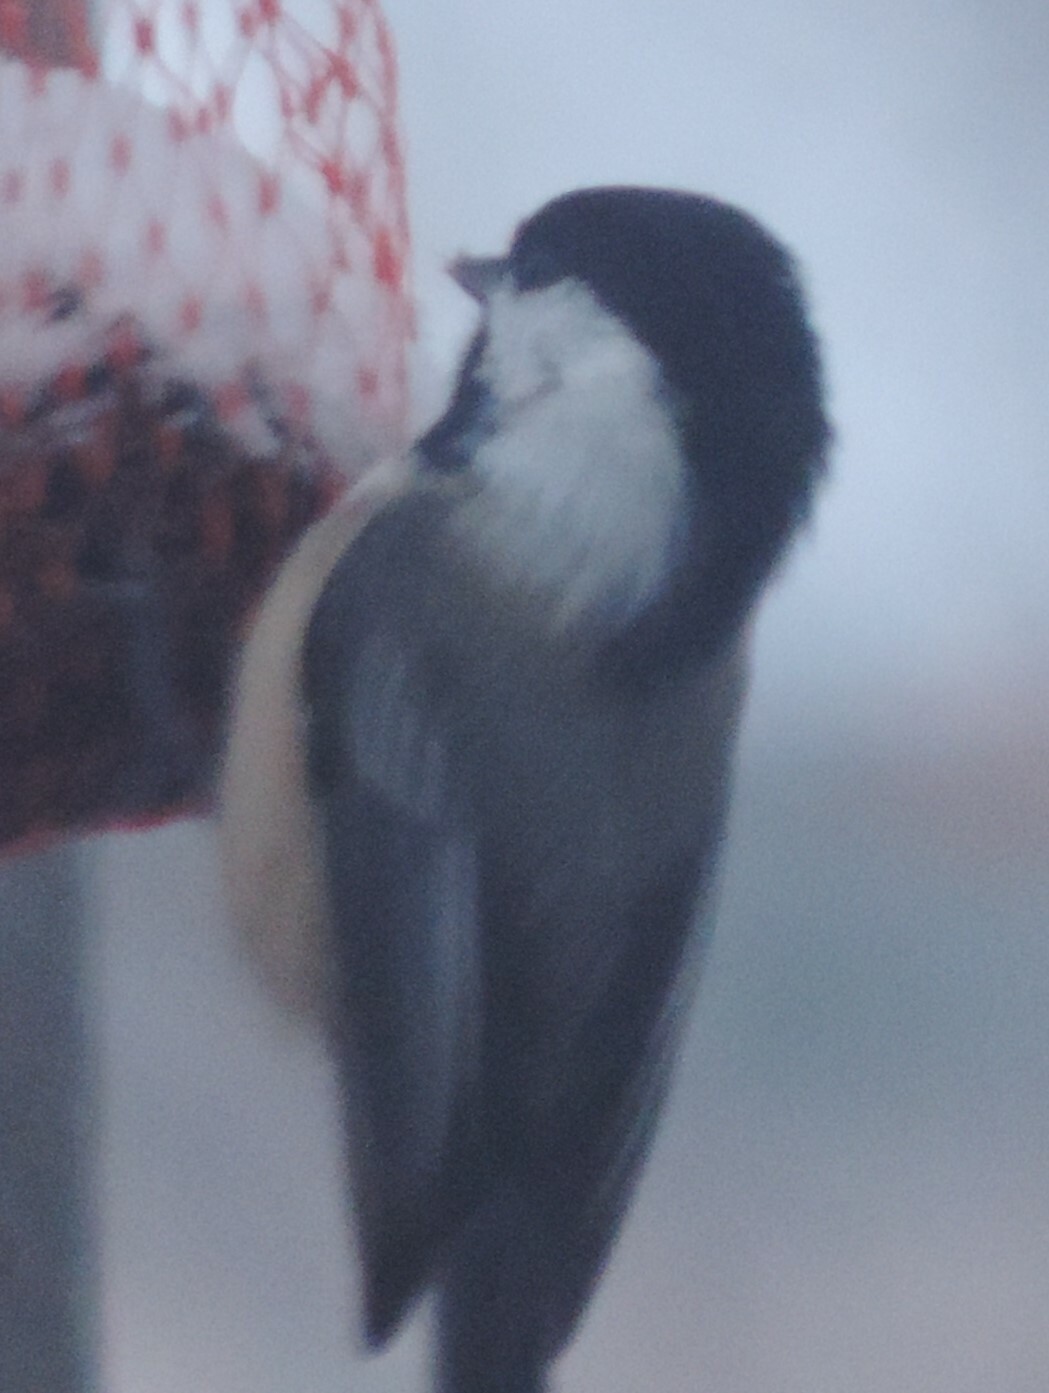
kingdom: Animalia
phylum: Chordata
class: Aves
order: Passeriformes
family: Paridae
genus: Poecile
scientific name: Poecile atricapillus
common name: Black-capped chickadee
